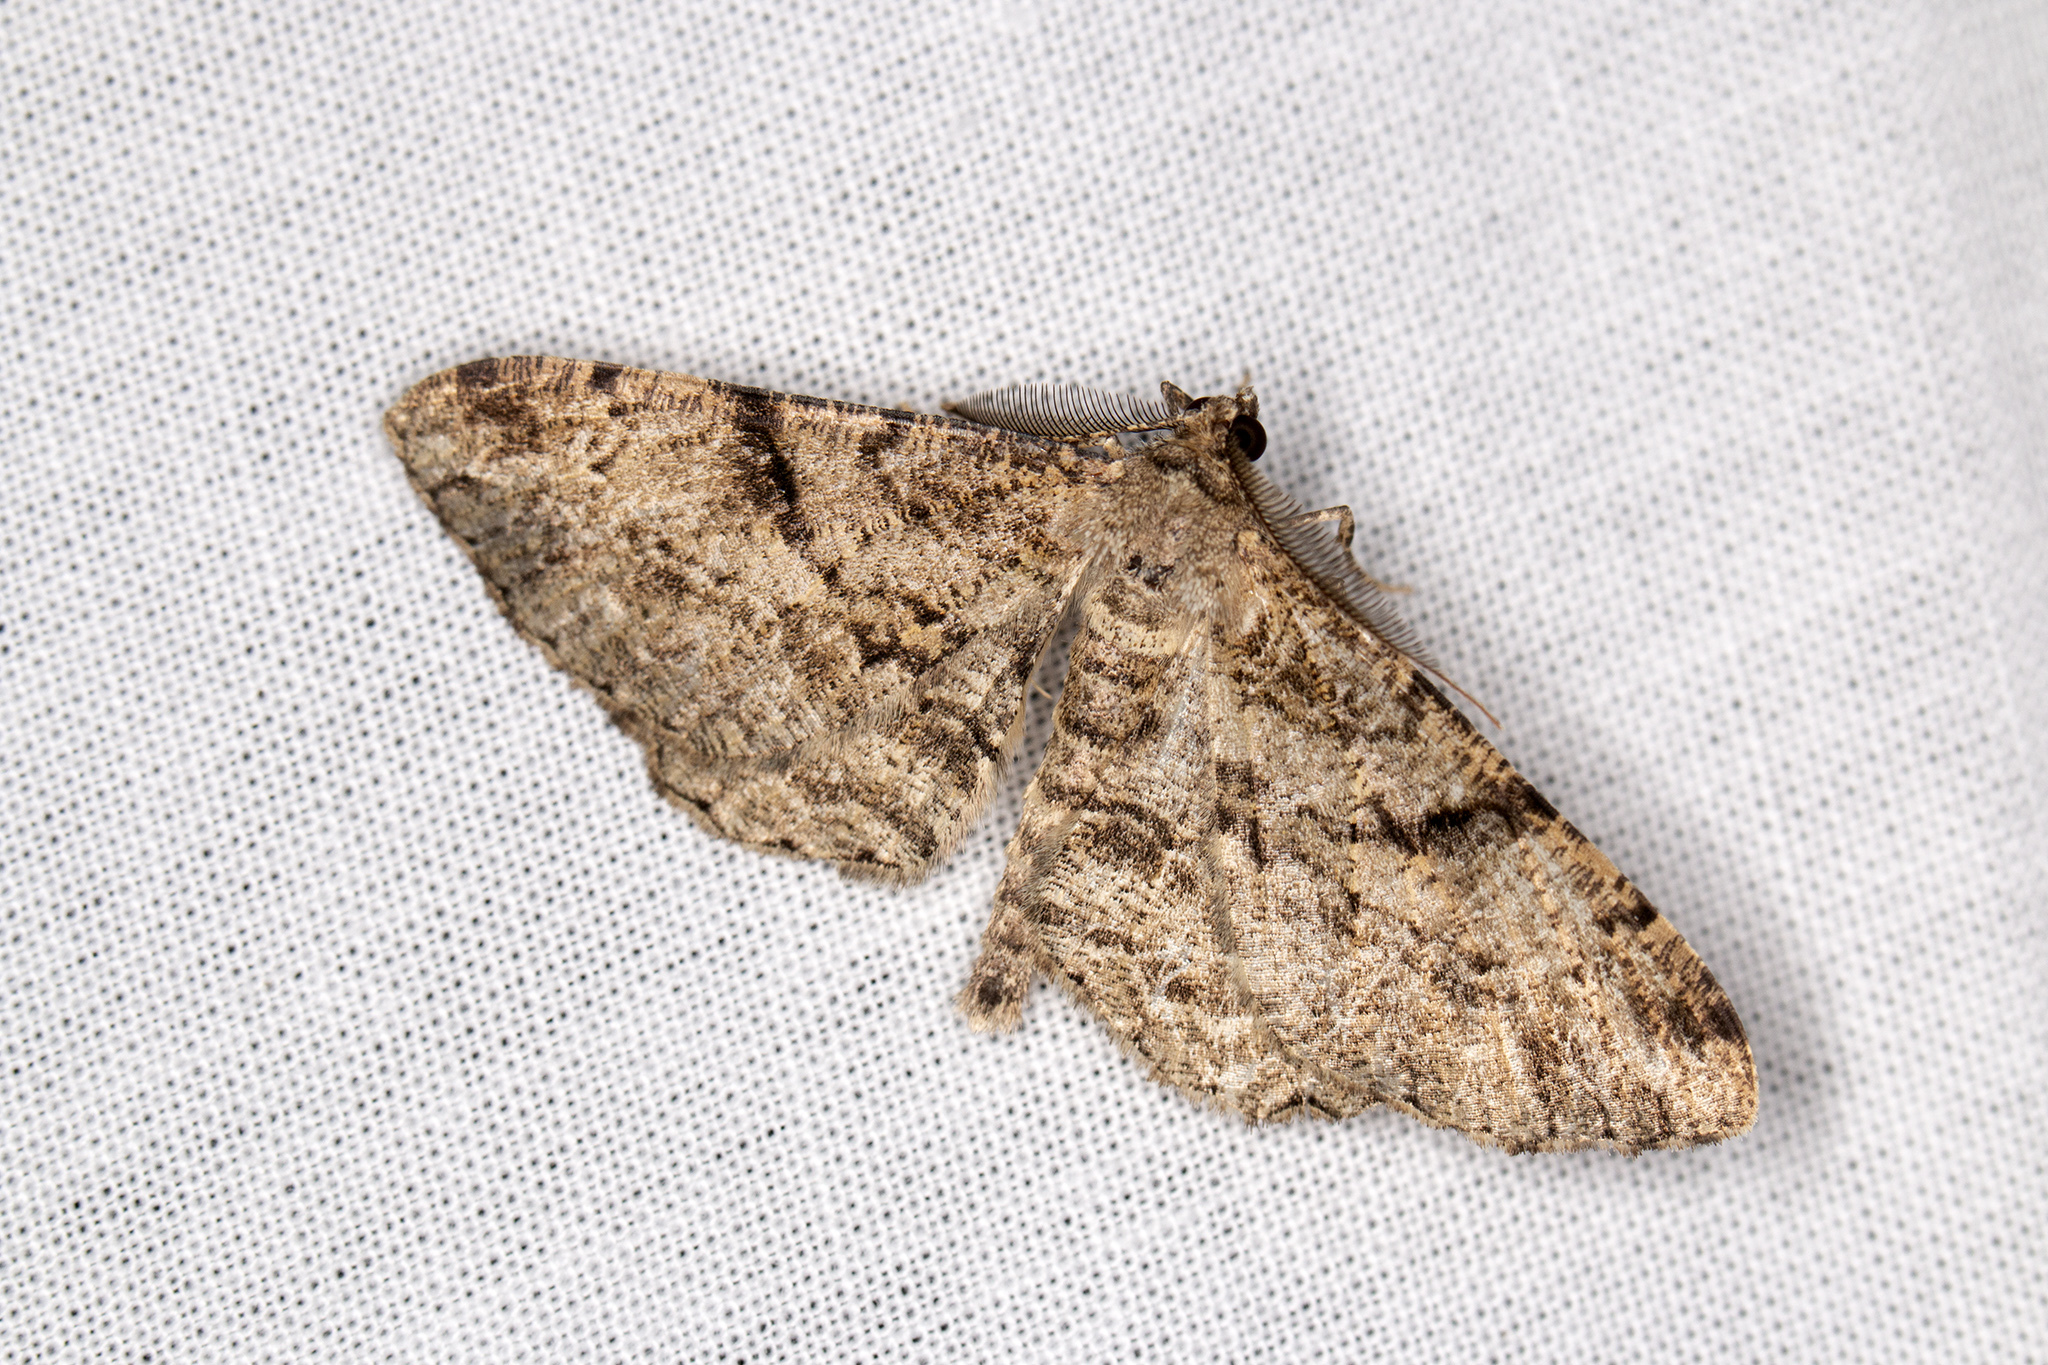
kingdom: Animalia
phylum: Arthropoda
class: Insecta
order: Lepidoptera
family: Geometridae
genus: Peribatodes
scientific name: Peribatodes rhomboidaria
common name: Willow beauty
